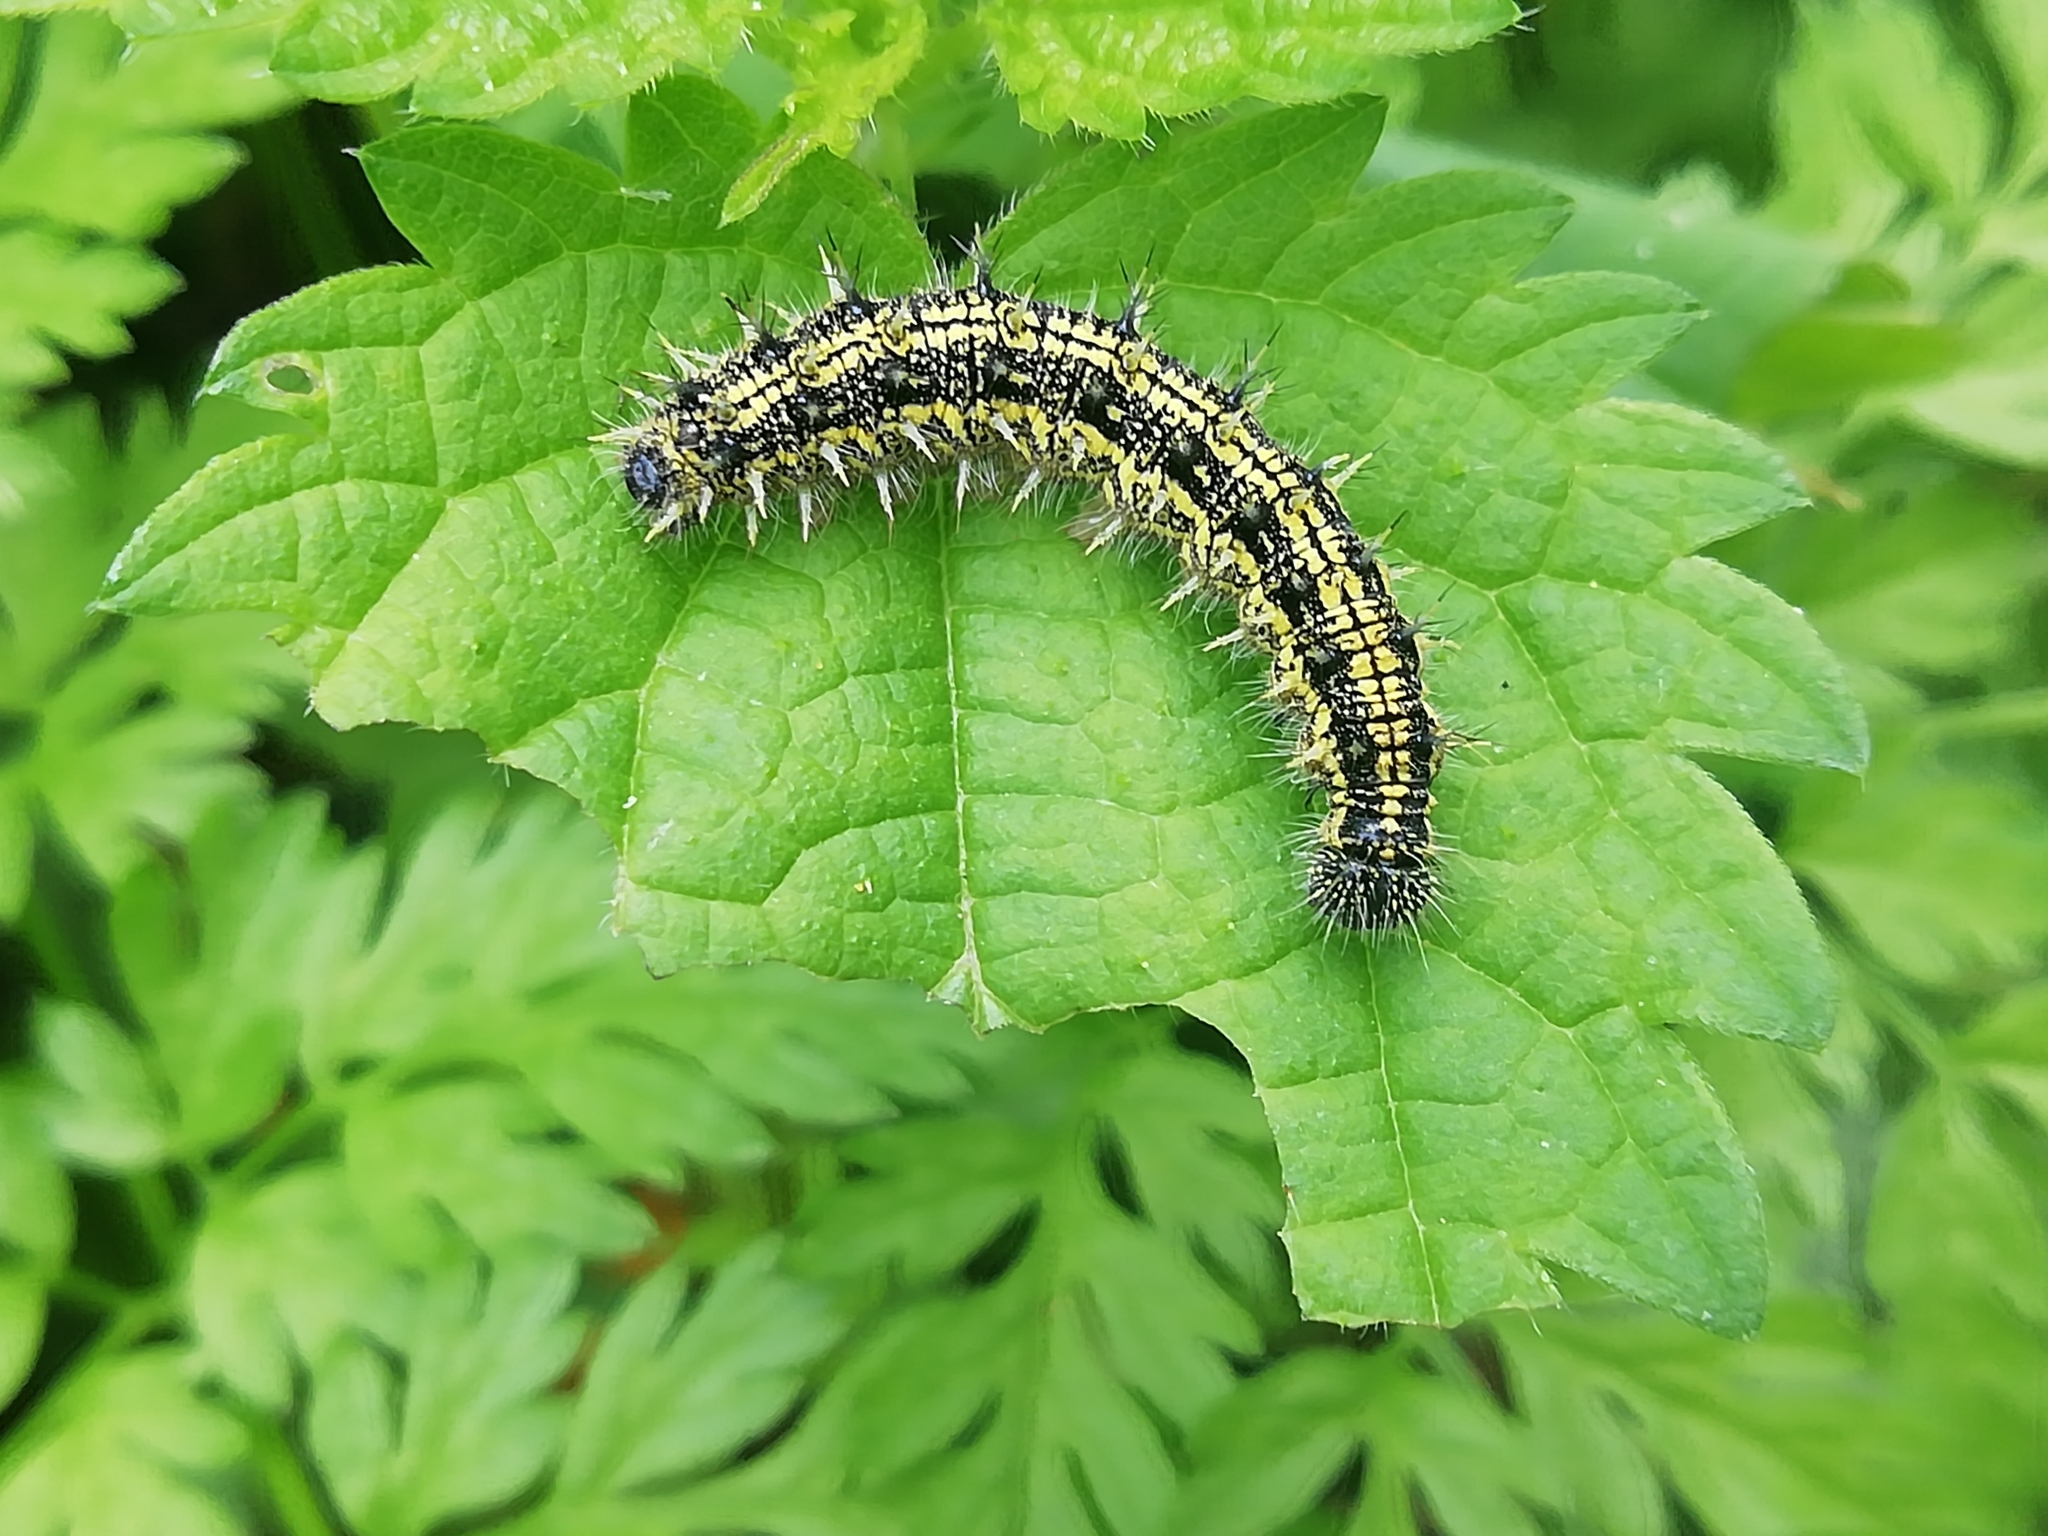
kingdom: Animalia
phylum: Arthropoda
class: Insecta
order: Lepidoptera
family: Nymphalidae
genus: Aglais
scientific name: Aglais urticae
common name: Small tortoiseshell
